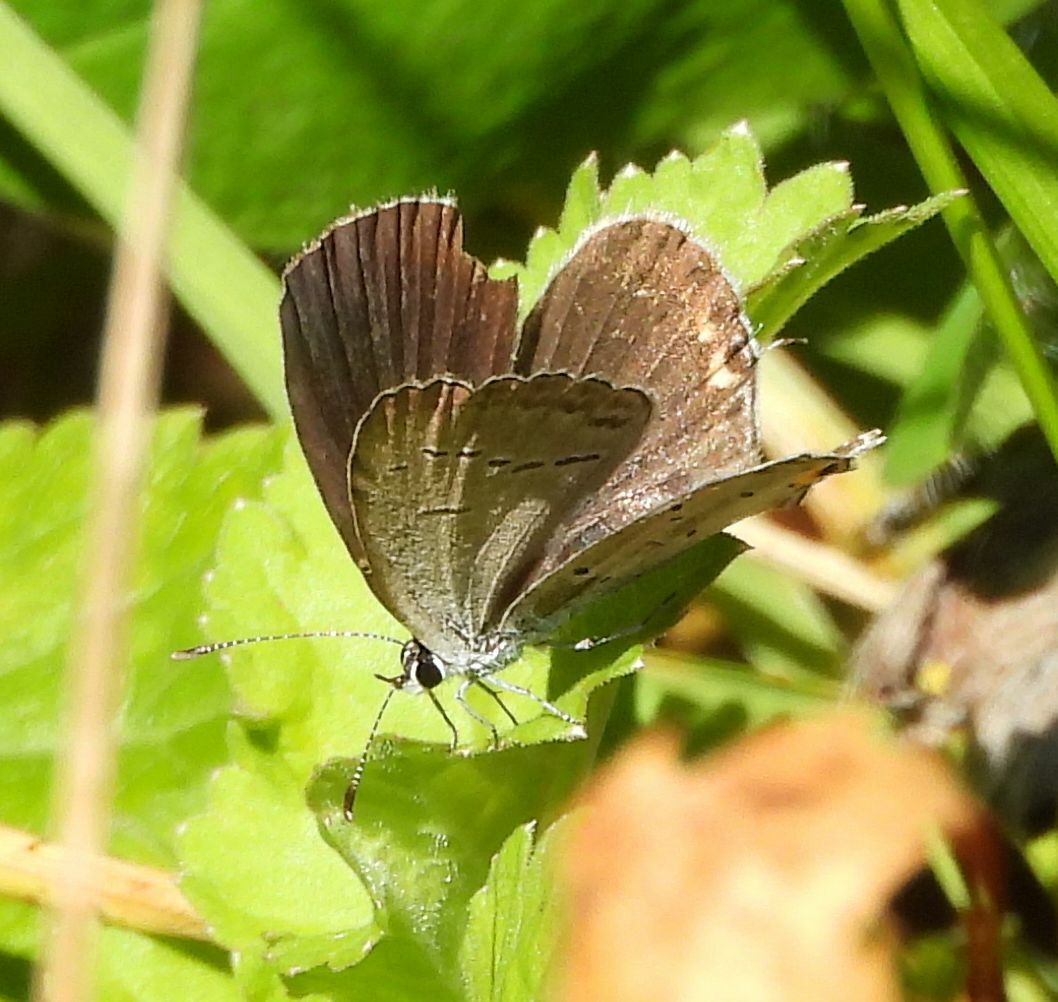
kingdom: Animalia
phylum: Arthropoda
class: Insecta
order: Lepidoptera
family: Lycaenidae
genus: Elkalyce
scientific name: Elkalyce comyntas
